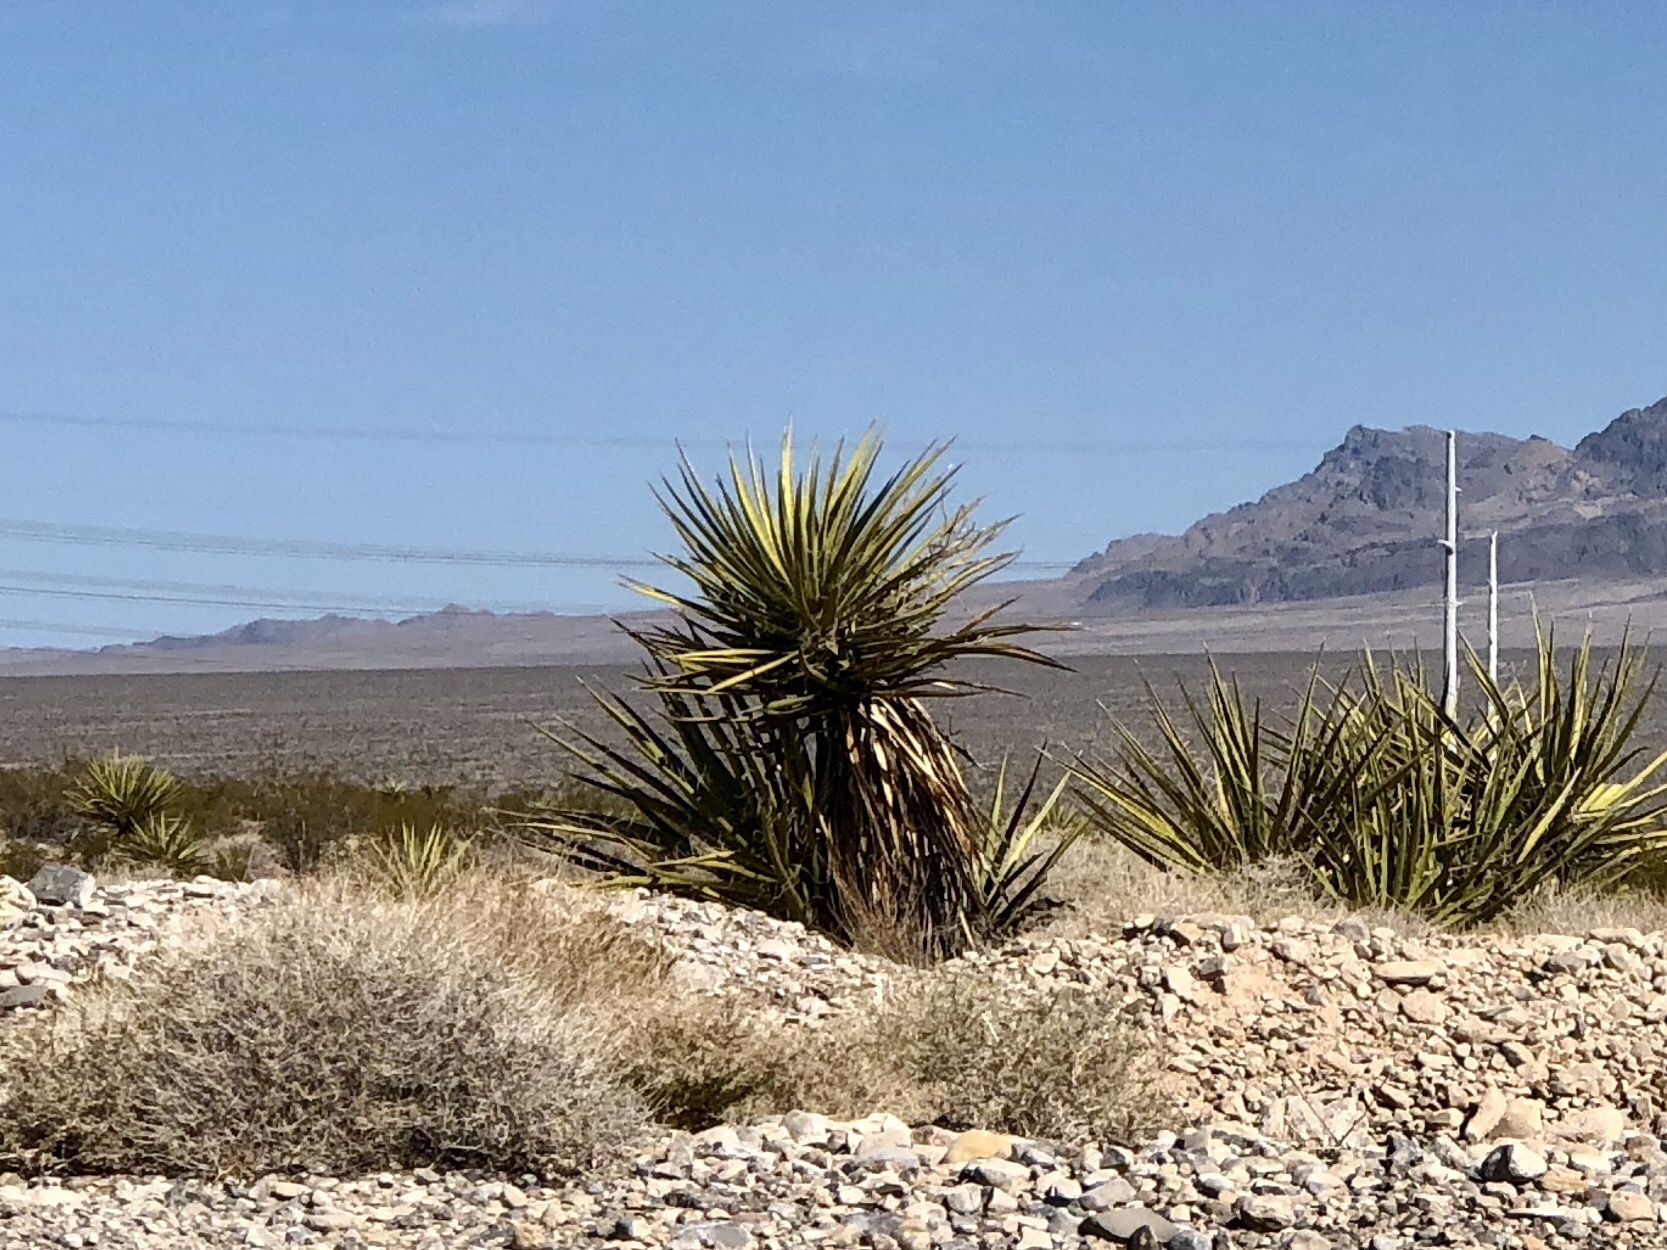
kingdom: Plantae
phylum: Tracheophyta
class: Liliopsida
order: Asparagales
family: Asparagaceae
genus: Yucca
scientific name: Yucca schidigera
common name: Mojave yucca
